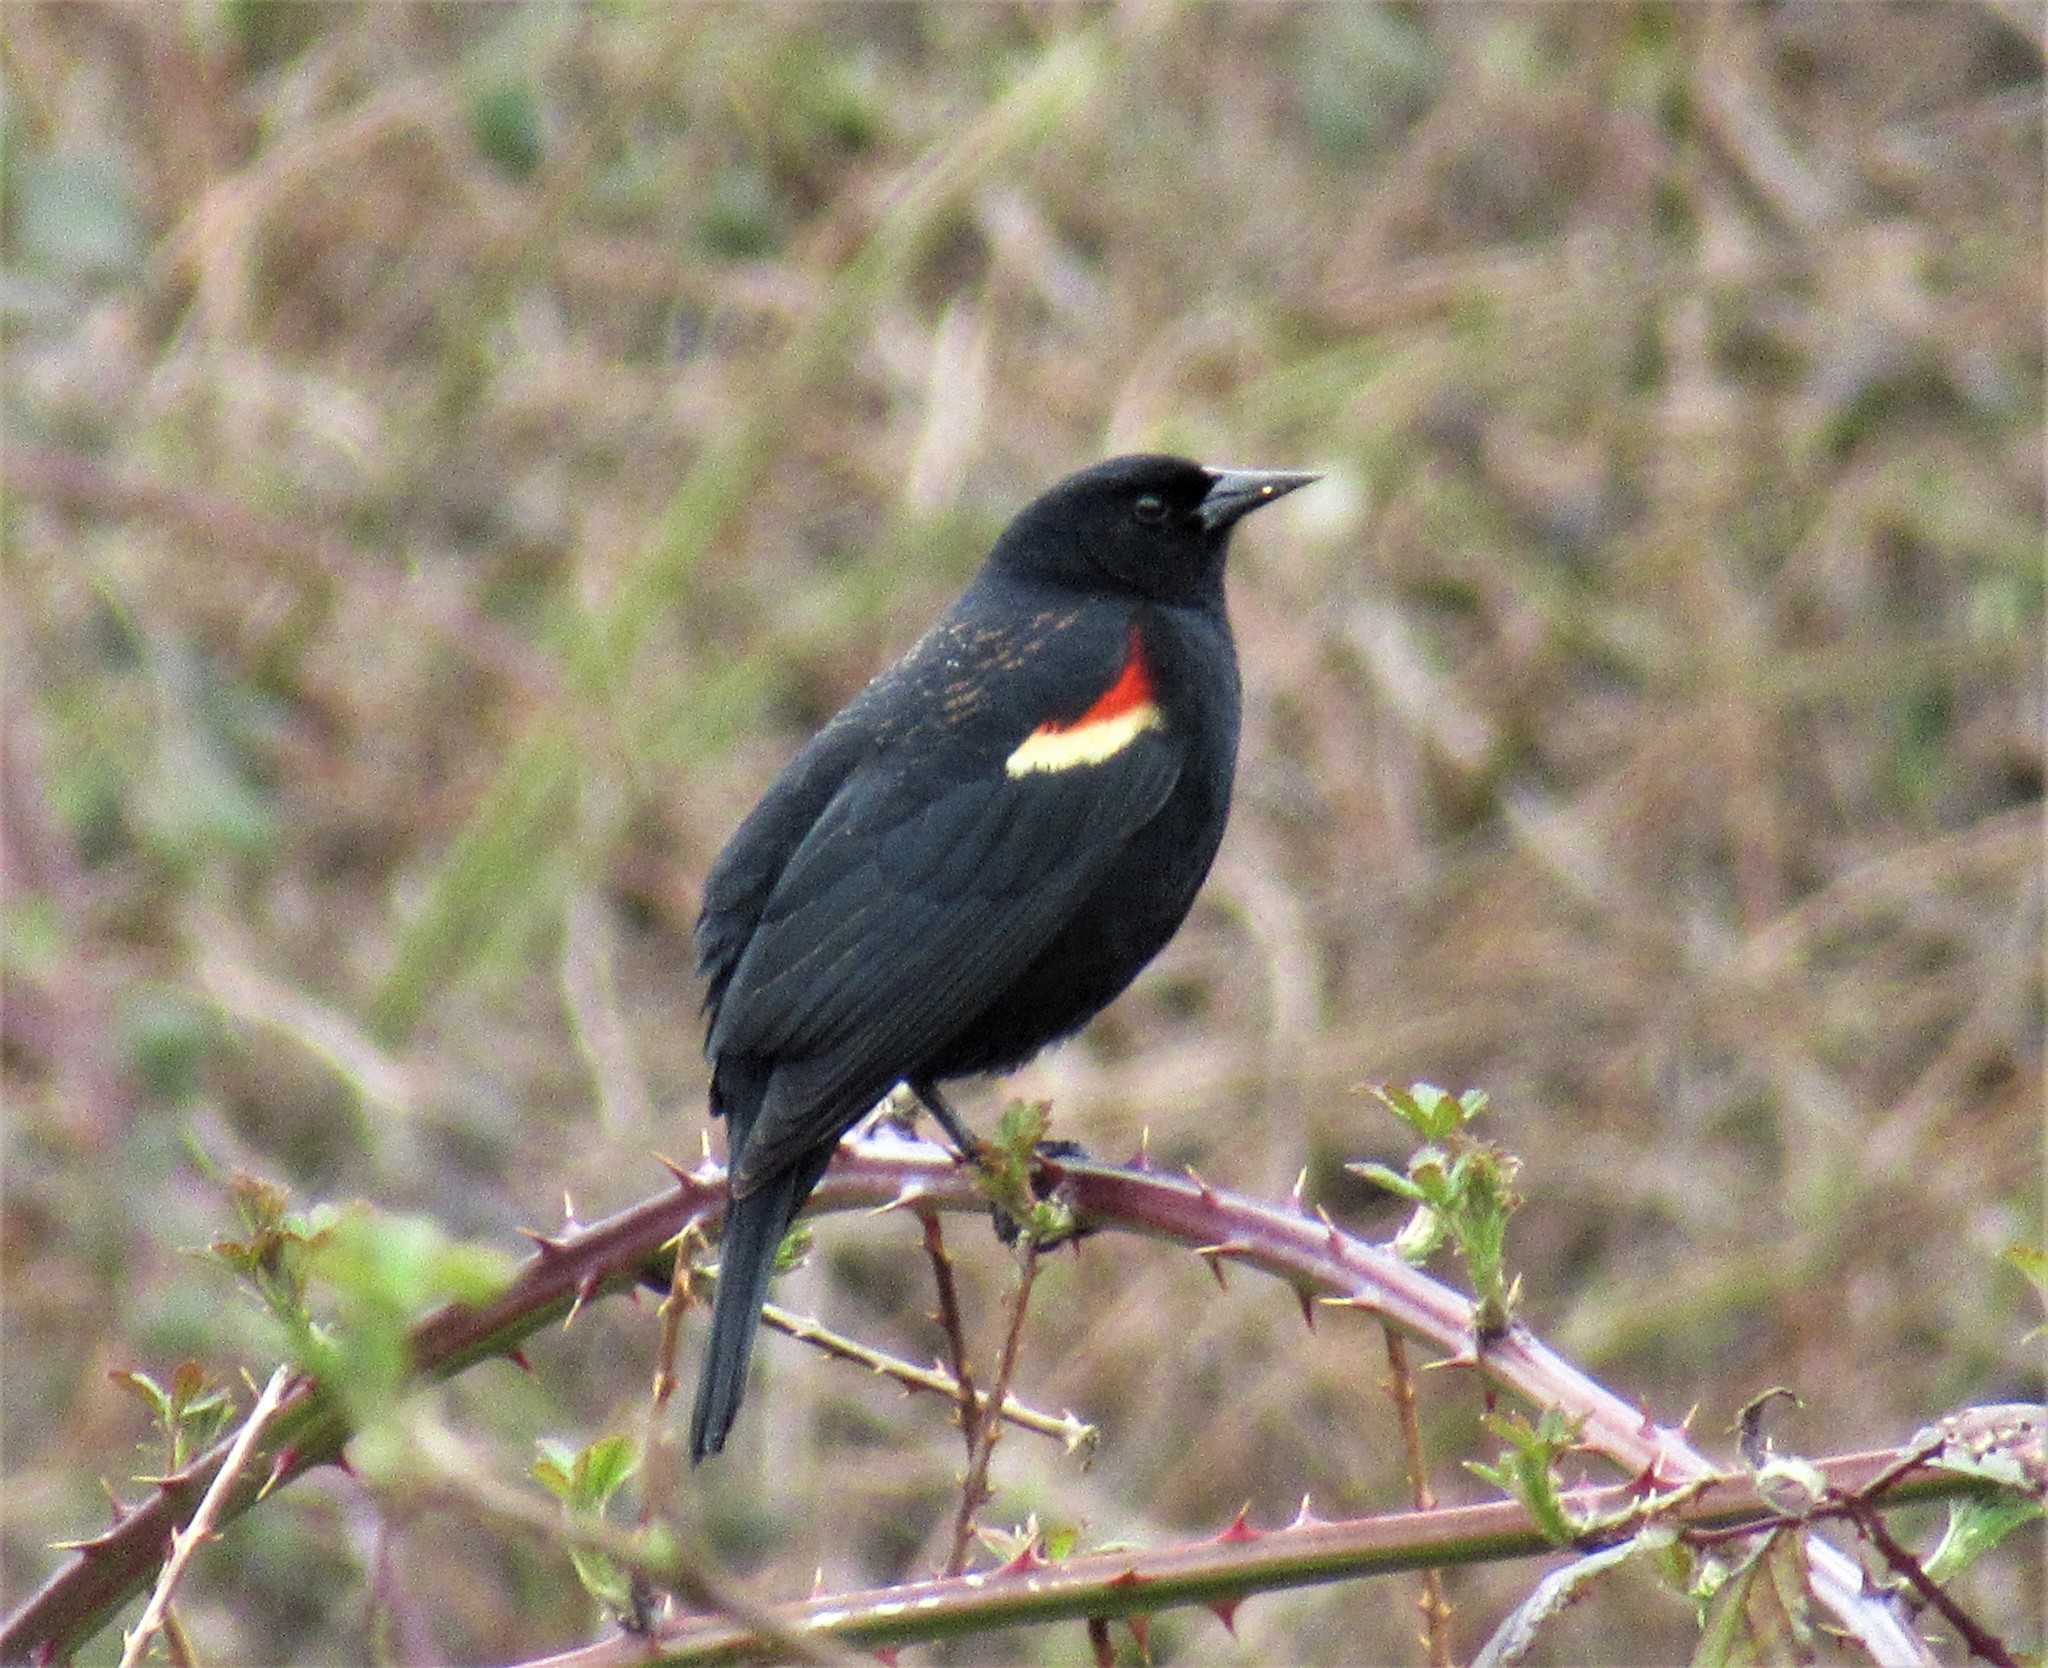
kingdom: Animalia
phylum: Chordata
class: Aves
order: Passeriformes
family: Icteridae
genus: Agelaius
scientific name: Agelaius phoeniceus
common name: Red-winged blackbird
